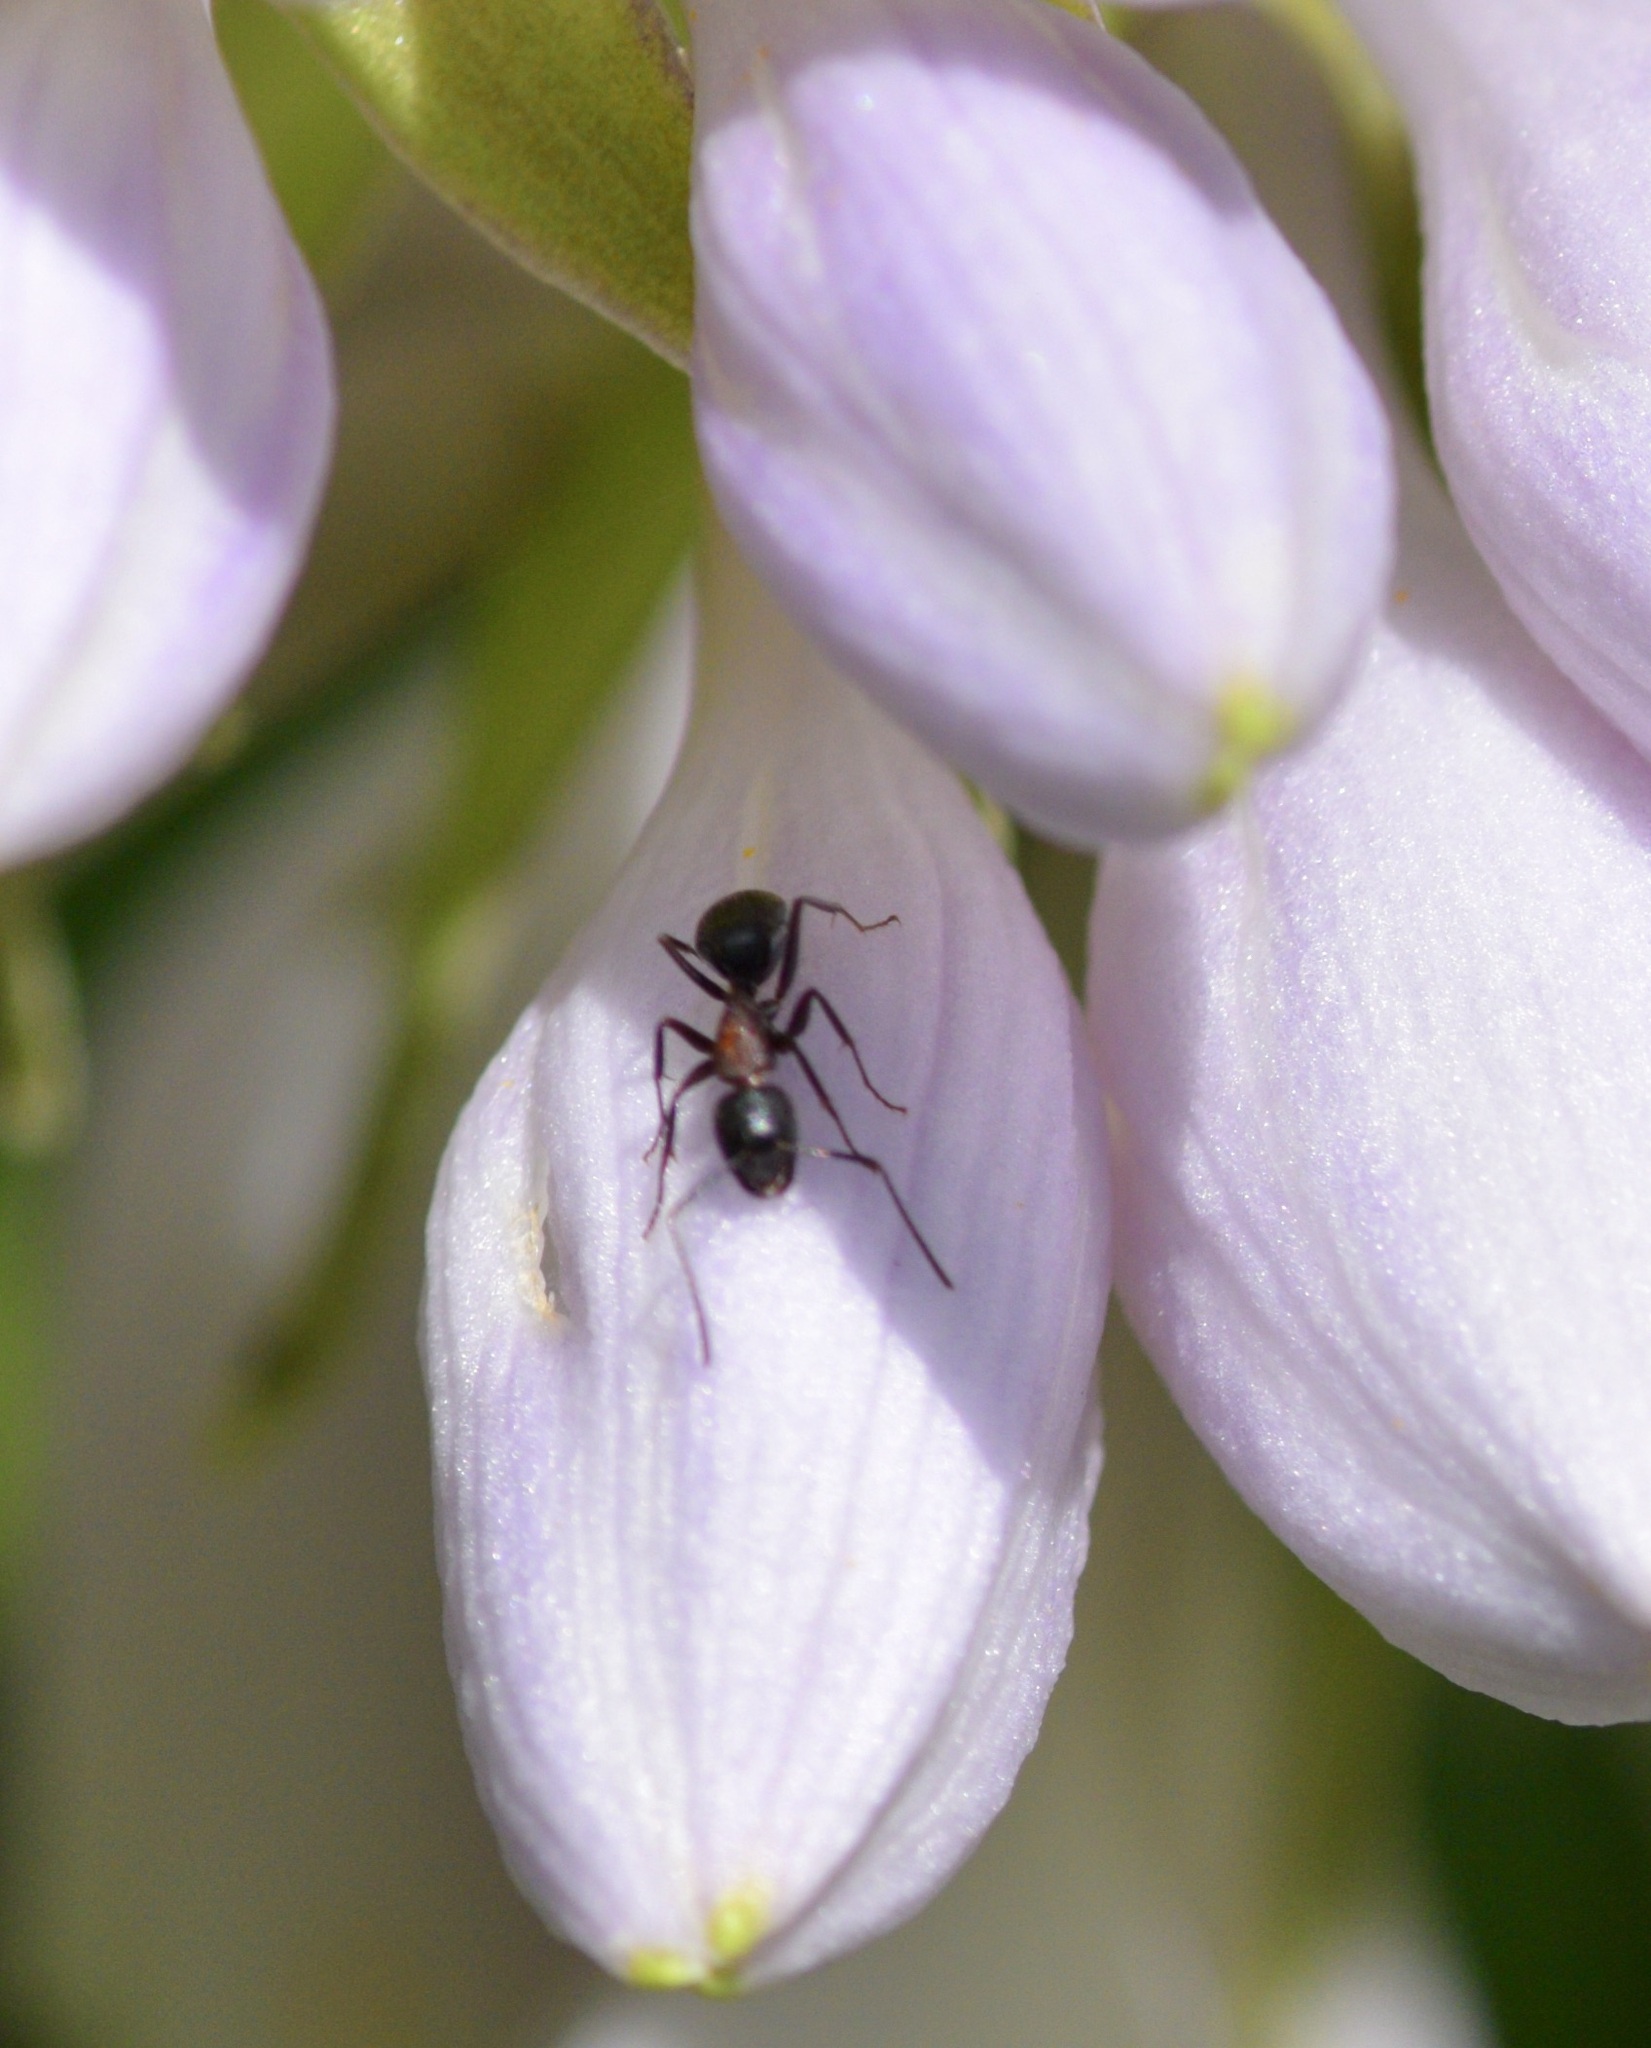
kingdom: Animalia
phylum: Arthropoda
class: Insecta
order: Hymenoptera
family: Formicidae
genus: Camponotus
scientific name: Camponotus novaeboracensis
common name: New york carpenter ant
